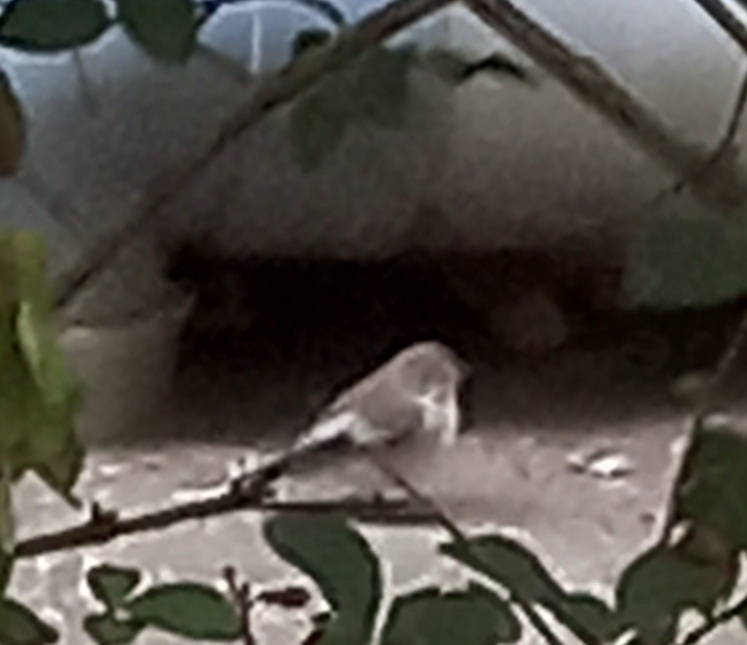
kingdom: Animalia
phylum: Chordata
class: Aves
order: Passeriformes
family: Muscicapidae
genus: Ficedula
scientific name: Ficedula hypoleuca
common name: European pied flycatcher
